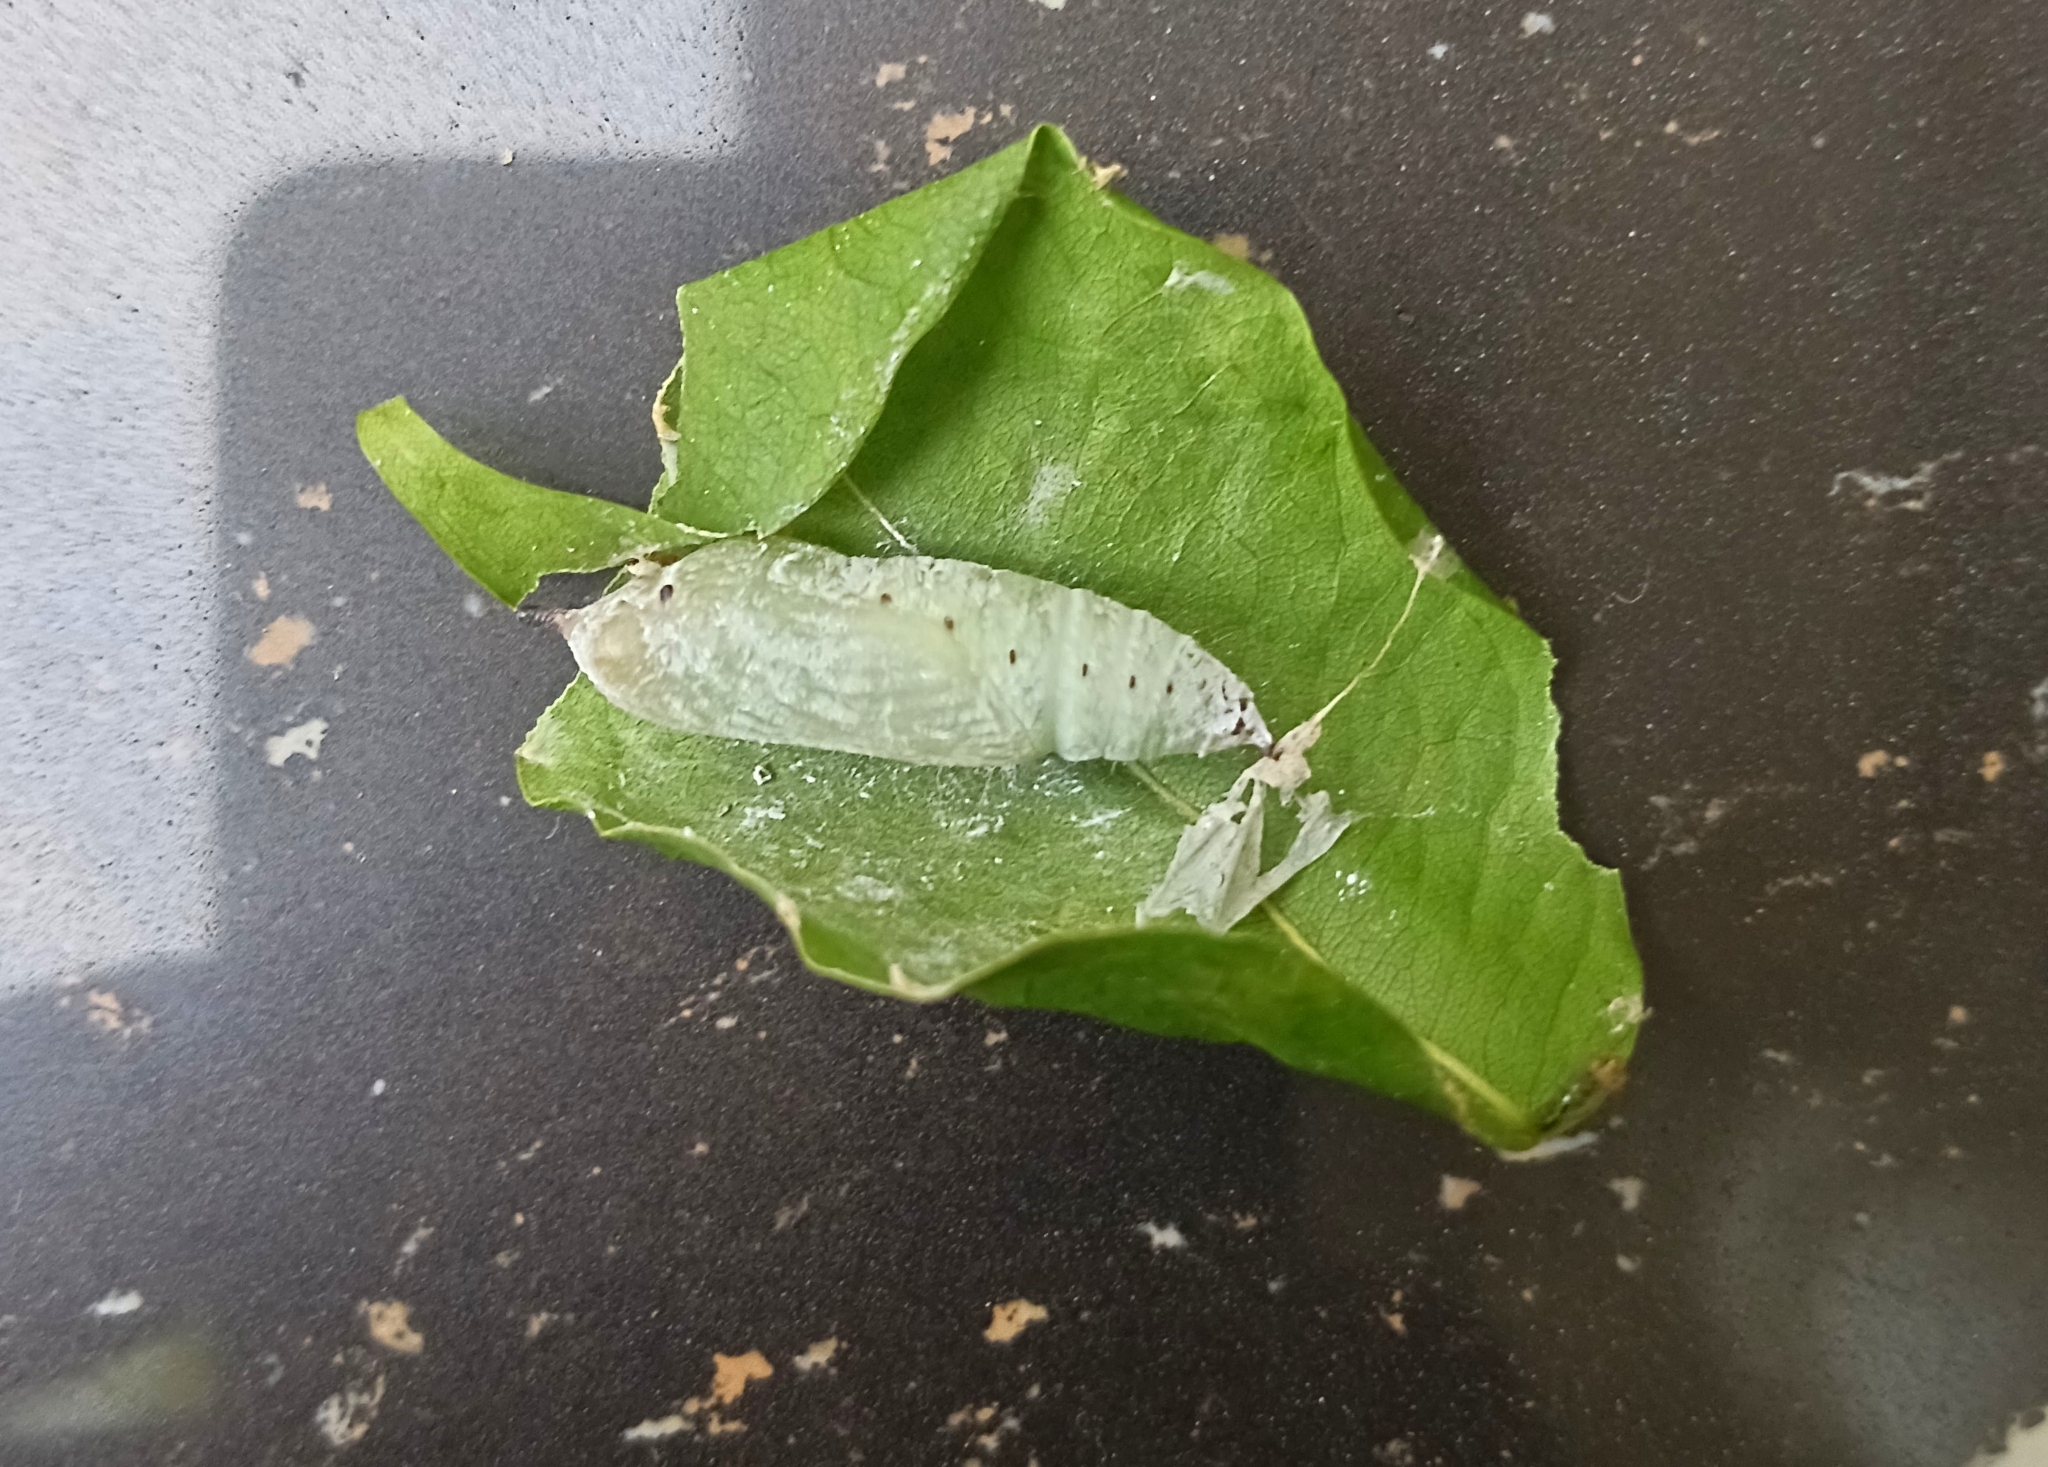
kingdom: Animalia
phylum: Arthropoda
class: Insecta
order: Lepidoptera
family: Hesperiidae
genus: Hasora
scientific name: Hasora badra
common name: Common awl
